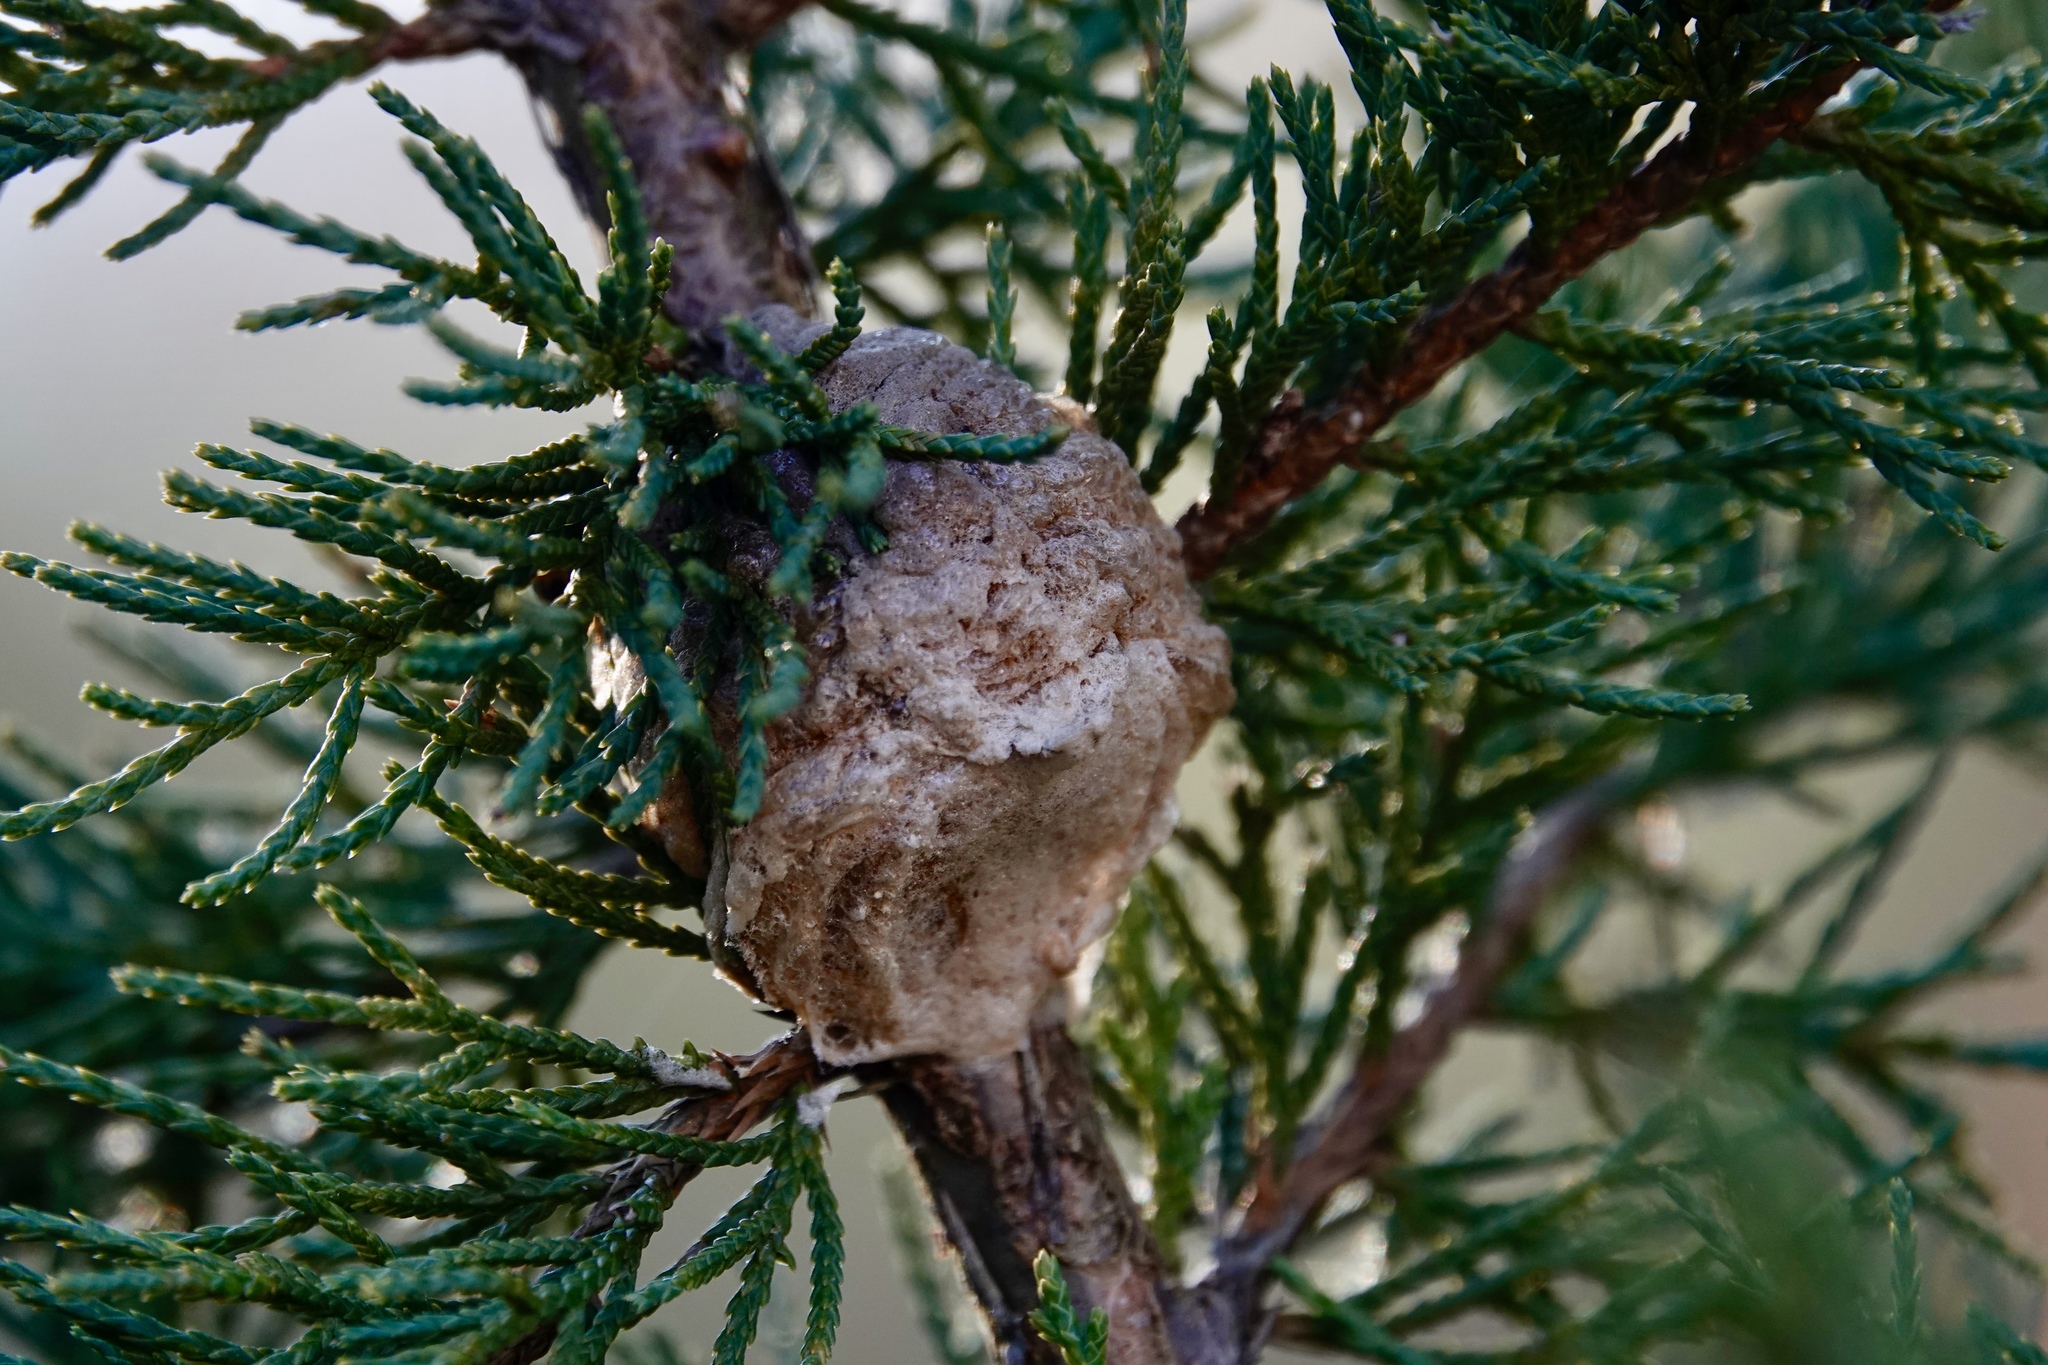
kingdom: Animalia
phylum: Arthropoda
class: Insecta
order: Mantodea
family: Mantidae
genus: Tenodera
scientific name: Tenodera sinensis
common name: Chinese mantis
